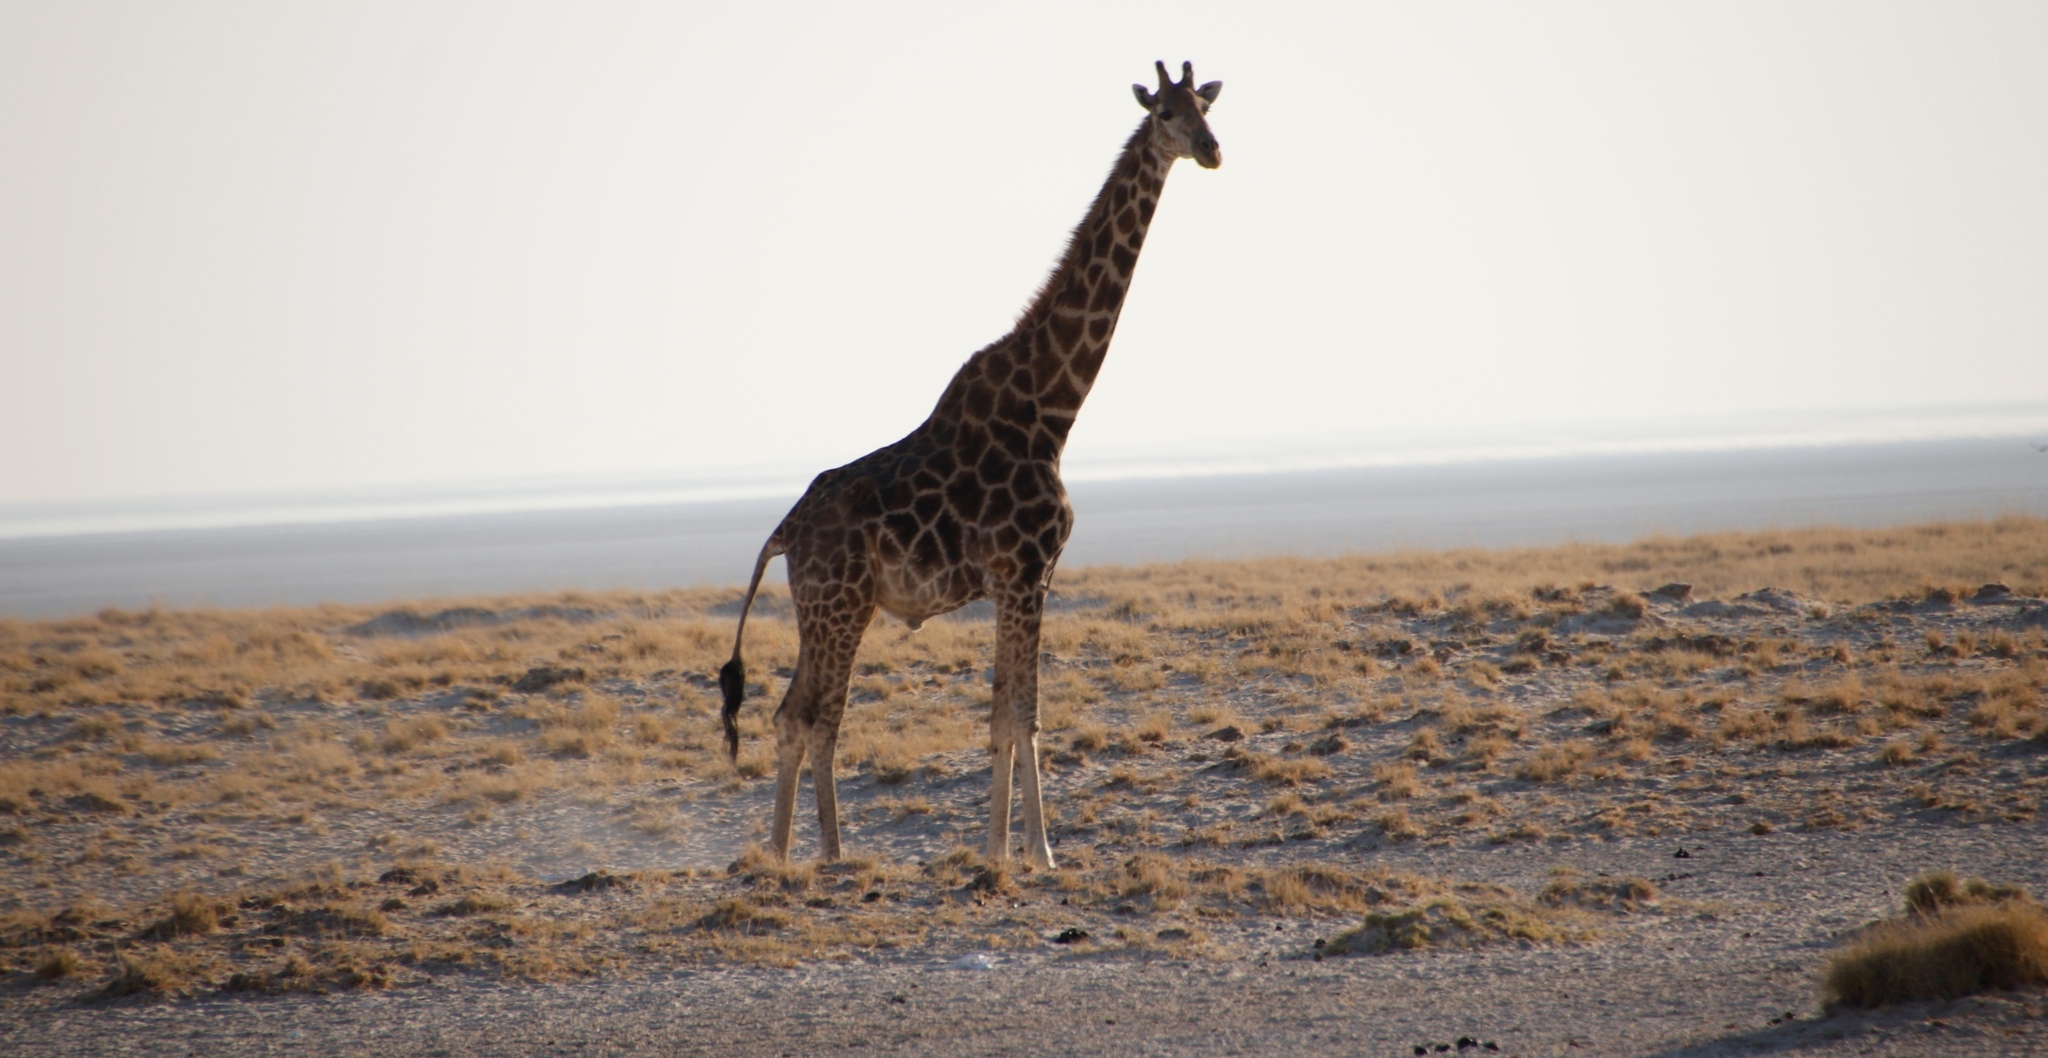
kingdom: Animalia
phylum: Chordata
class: Mammalia
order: Artiodactyla
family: Giraffidae
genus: Giraffa
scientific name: Giraffa giraffa
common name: Southern giraffe
